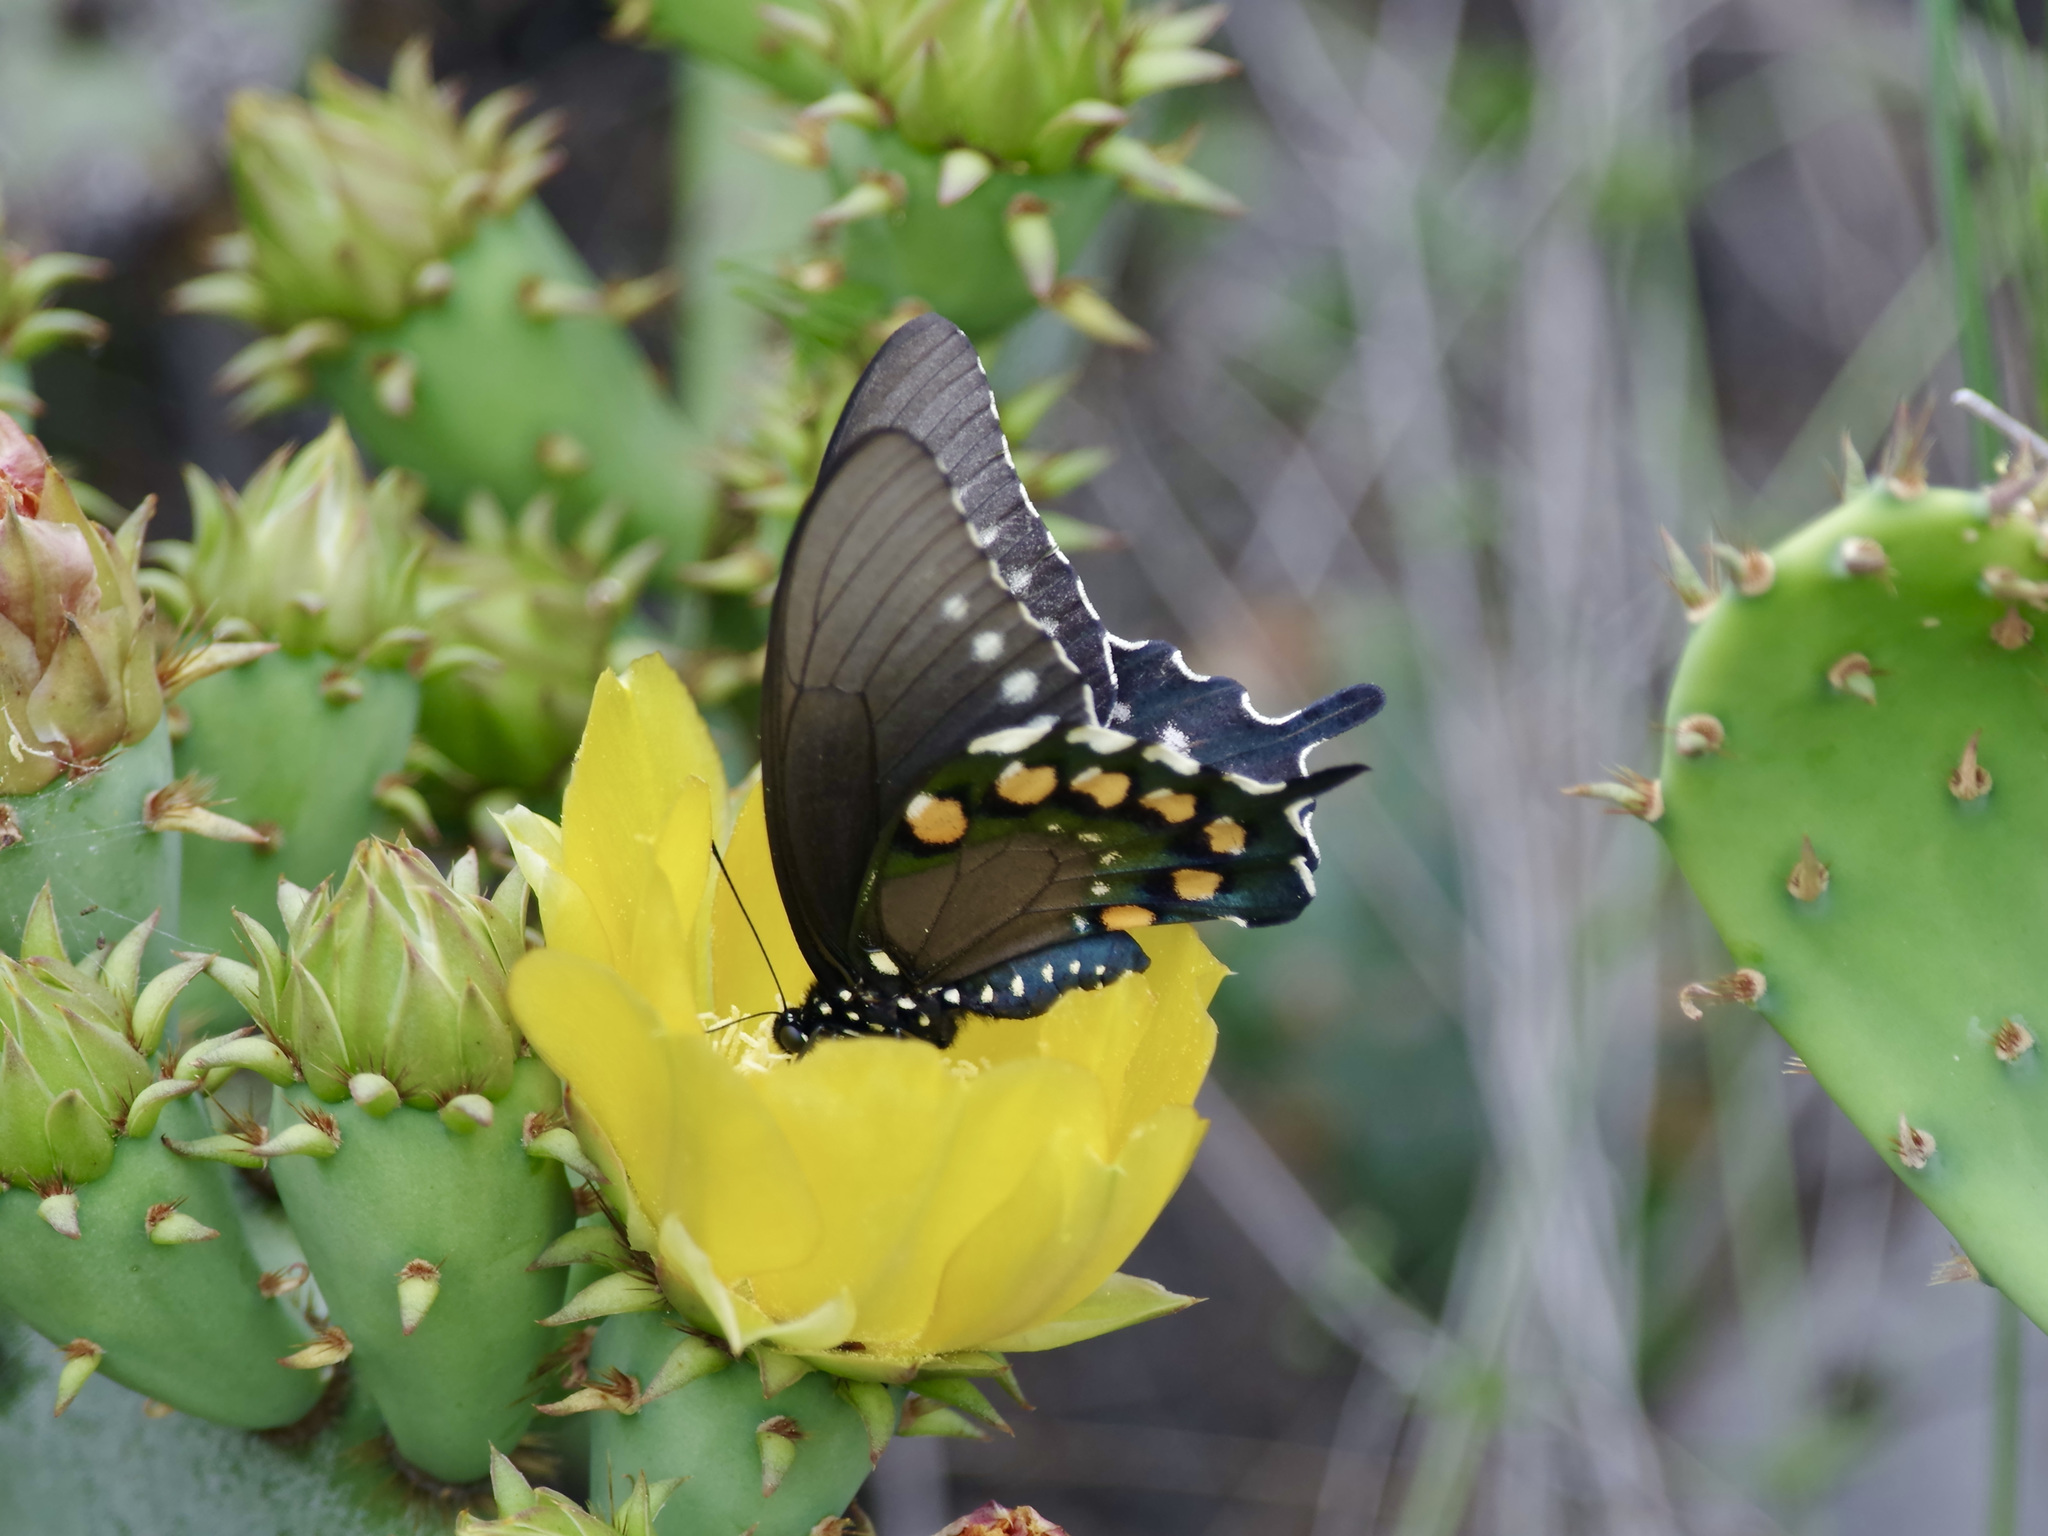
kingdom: Animalia
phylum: Arthropoda
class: Insecta
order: Lepidoptera
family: Papilionidae
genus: Battus
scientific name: Battus philenor
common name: Pipevine swallowtail
